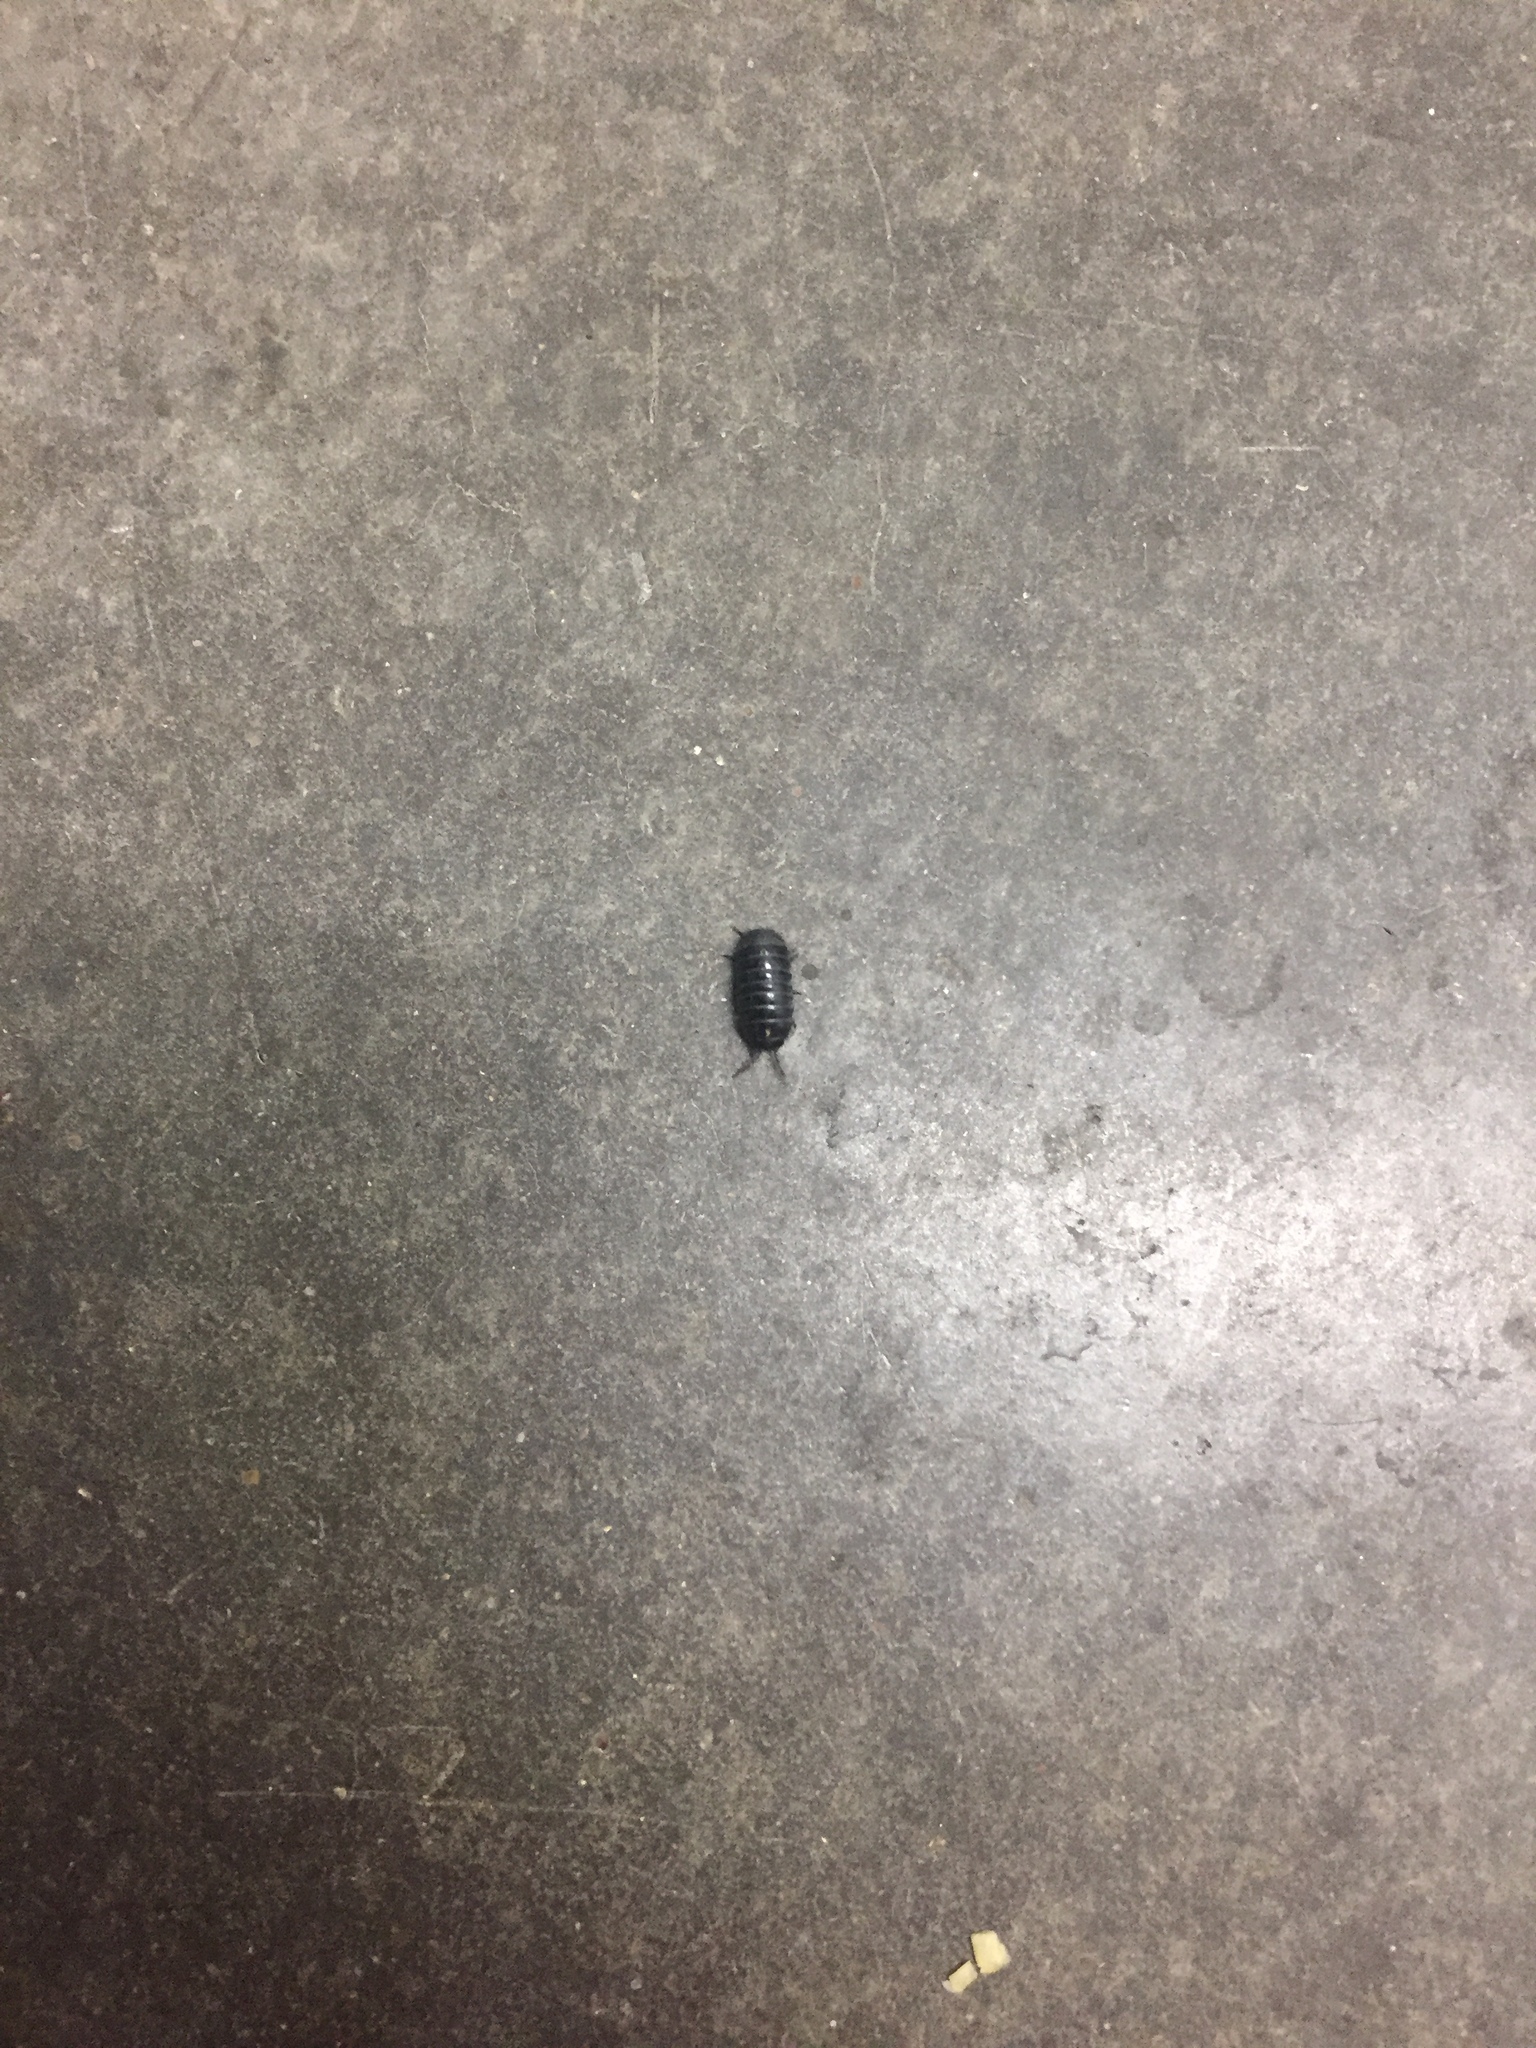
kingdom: Animalia
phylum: Arthropoda
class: Malacostraca
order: Isopoda
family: Armadillidiidae
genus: Armadillidium
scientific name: Armadillidium vulgare
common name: Common pill woodlouse
